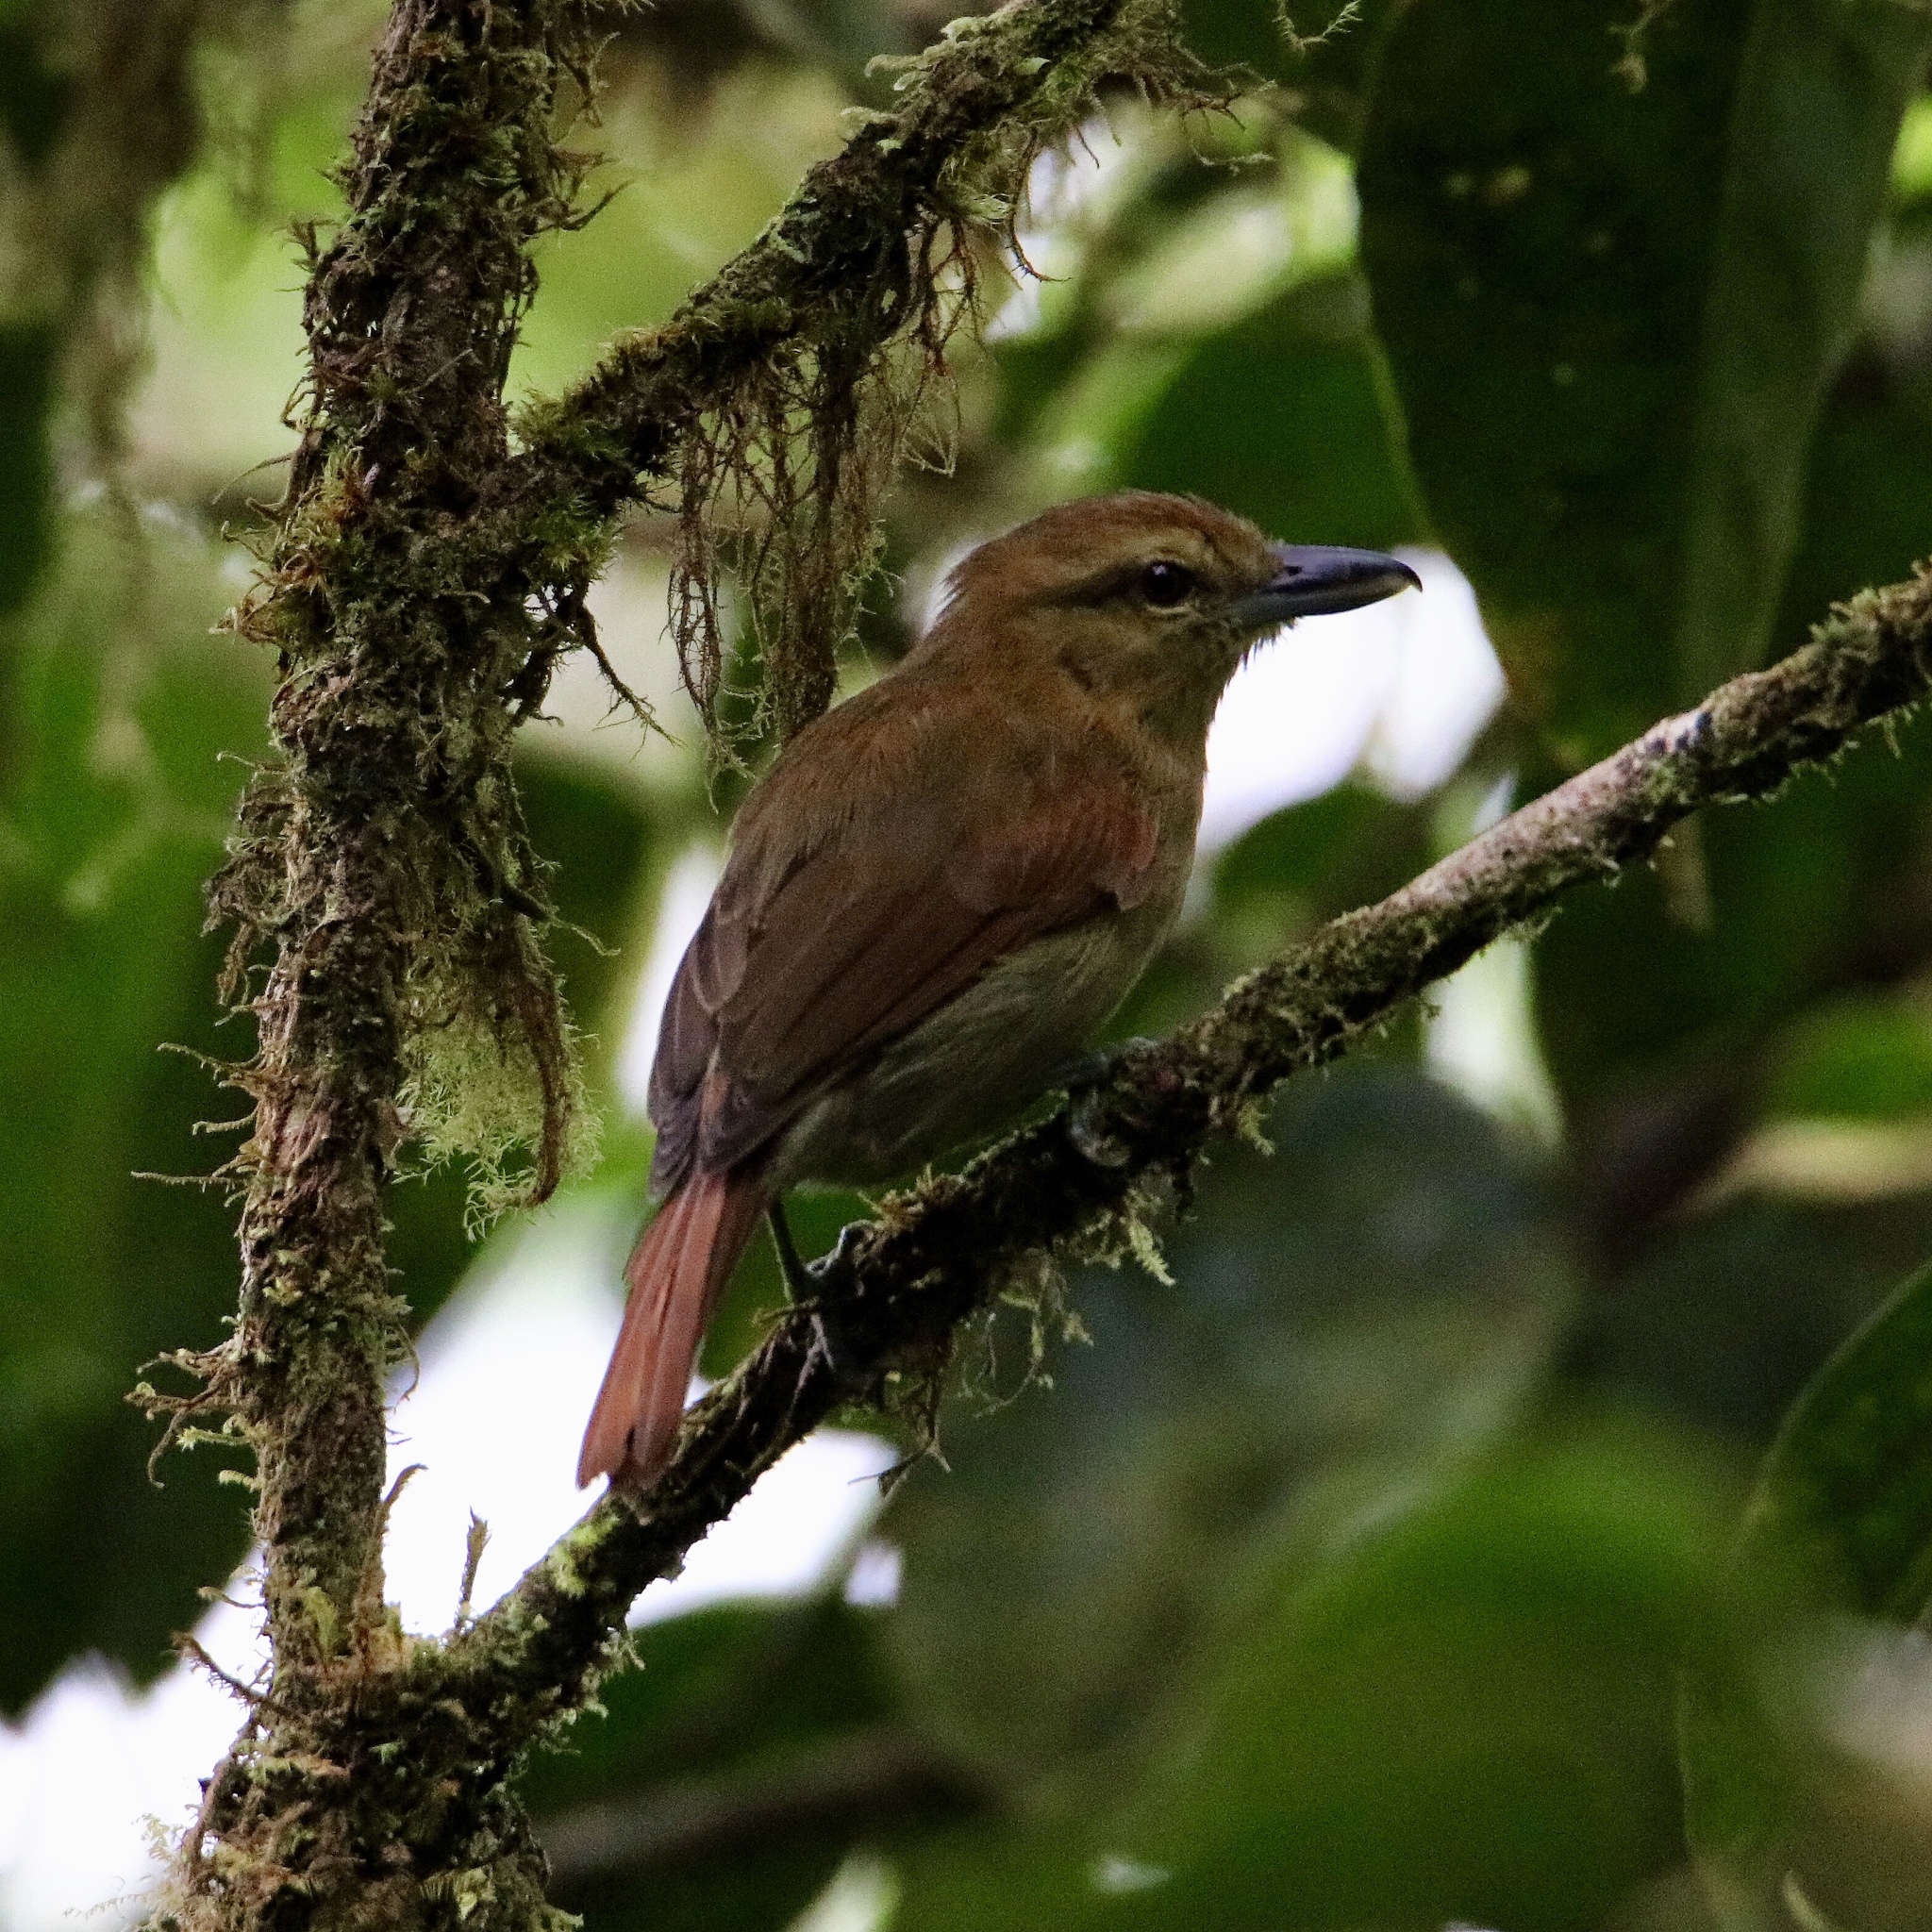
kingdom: Animalia
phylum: Chordata
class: Aves
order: Passeriformes
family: Thamnophilidae
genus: Thamnistes
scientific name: Thamnistes anabatinus
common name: Russet antshrike
